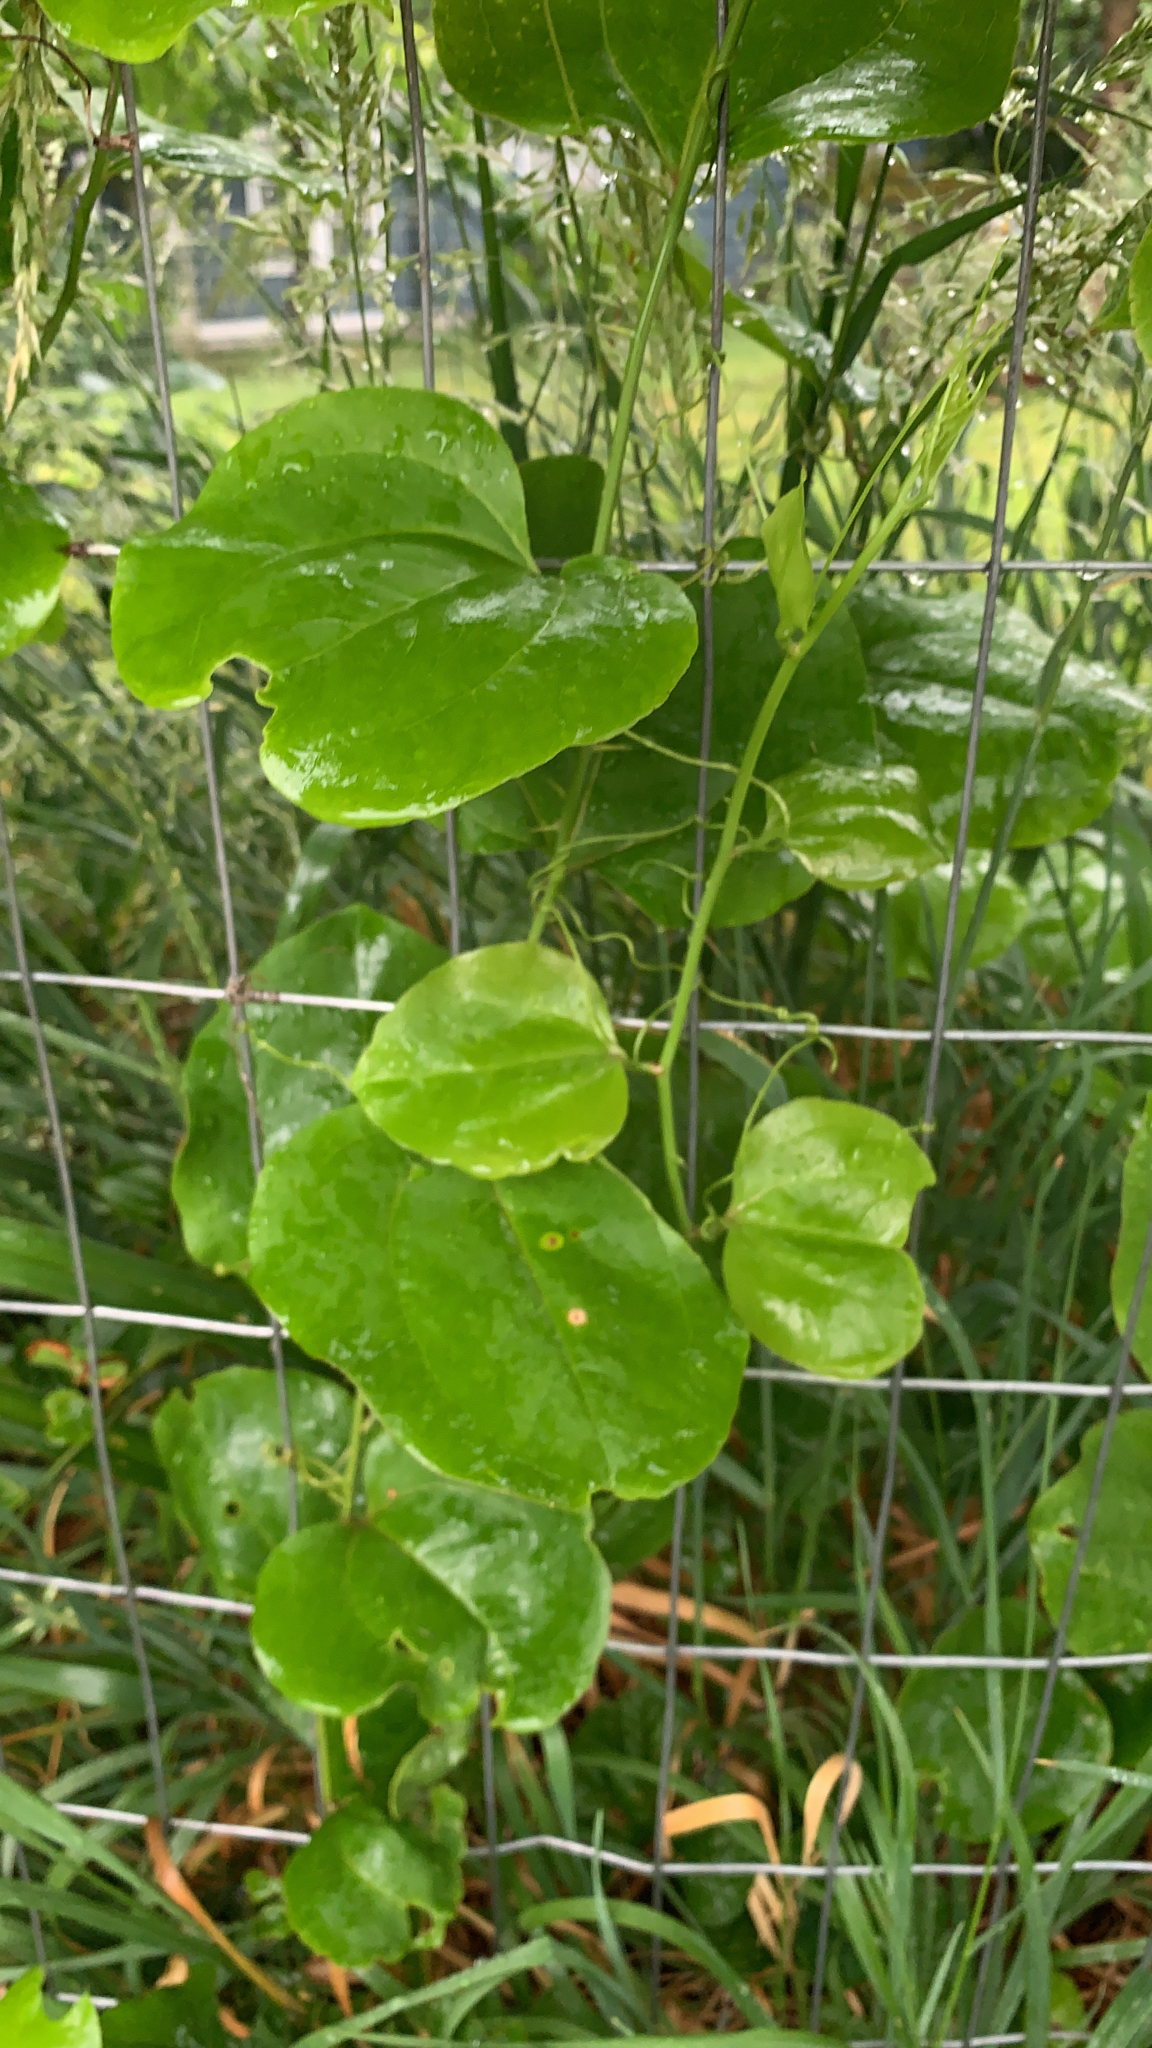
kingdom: Plantae
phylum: Tracheophyta
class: Liliopsida
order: Liliales
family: Smilacaceae
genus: Smilax
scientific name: Smilax rotundifolia
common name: Bullbriar
